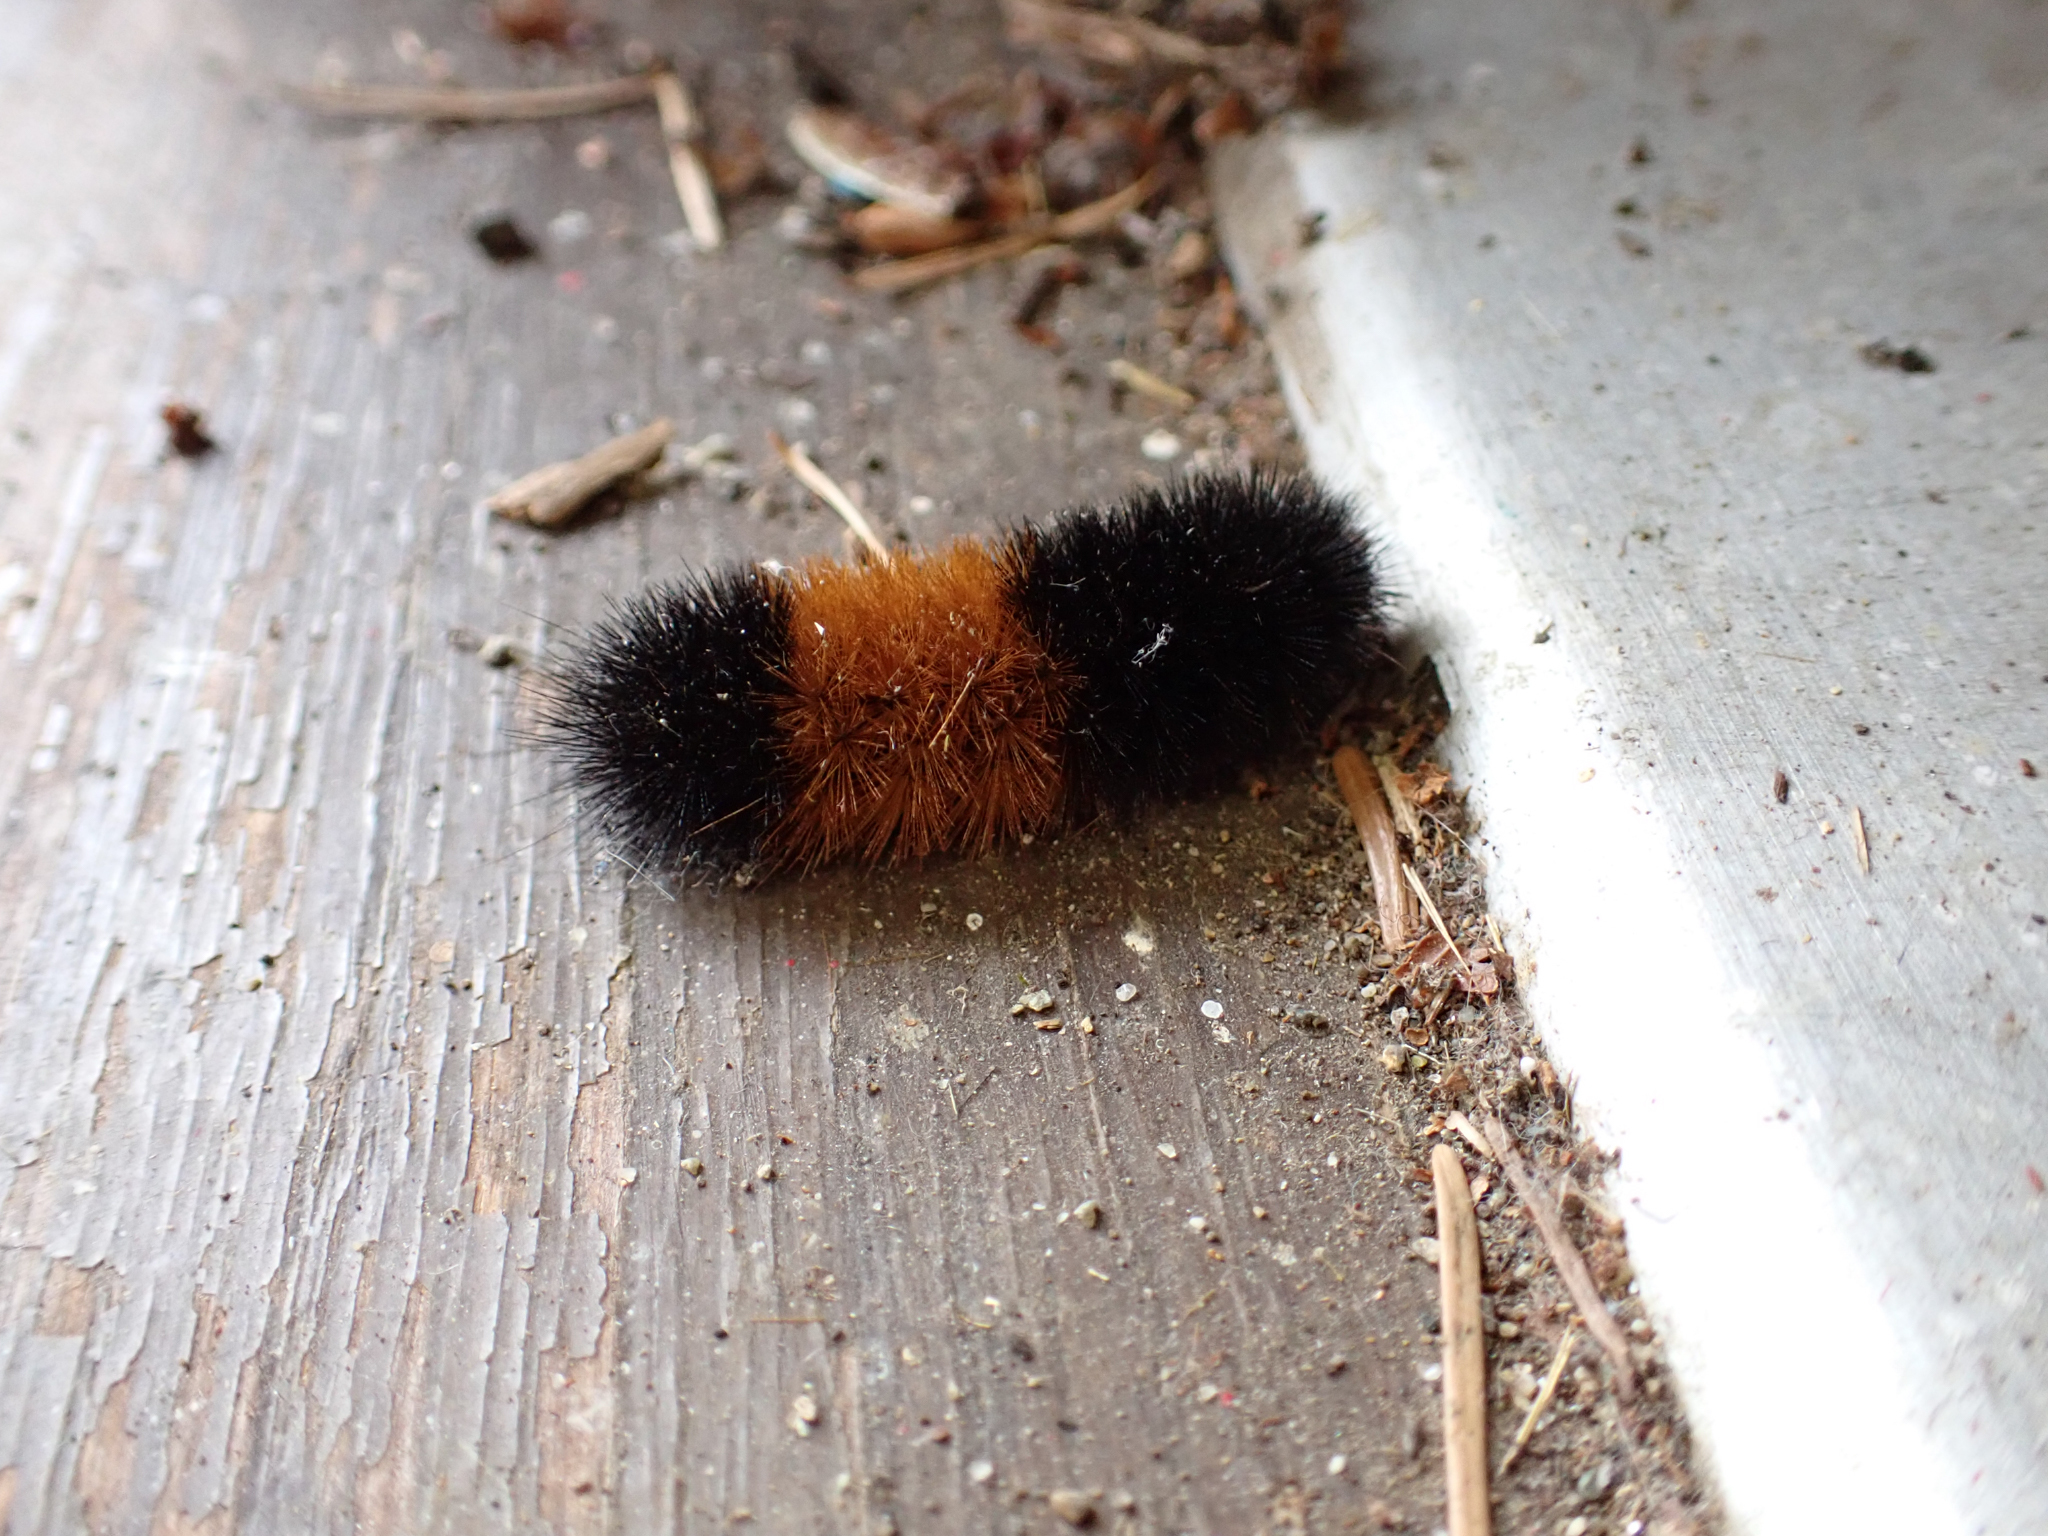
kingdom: Animalia
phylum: Arthropoda
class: Insecta
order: Lepidoptera
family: Erebidae
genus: Pyrrharctia
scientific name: Pyrrharctia isabella
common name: Isabella tiger moth
